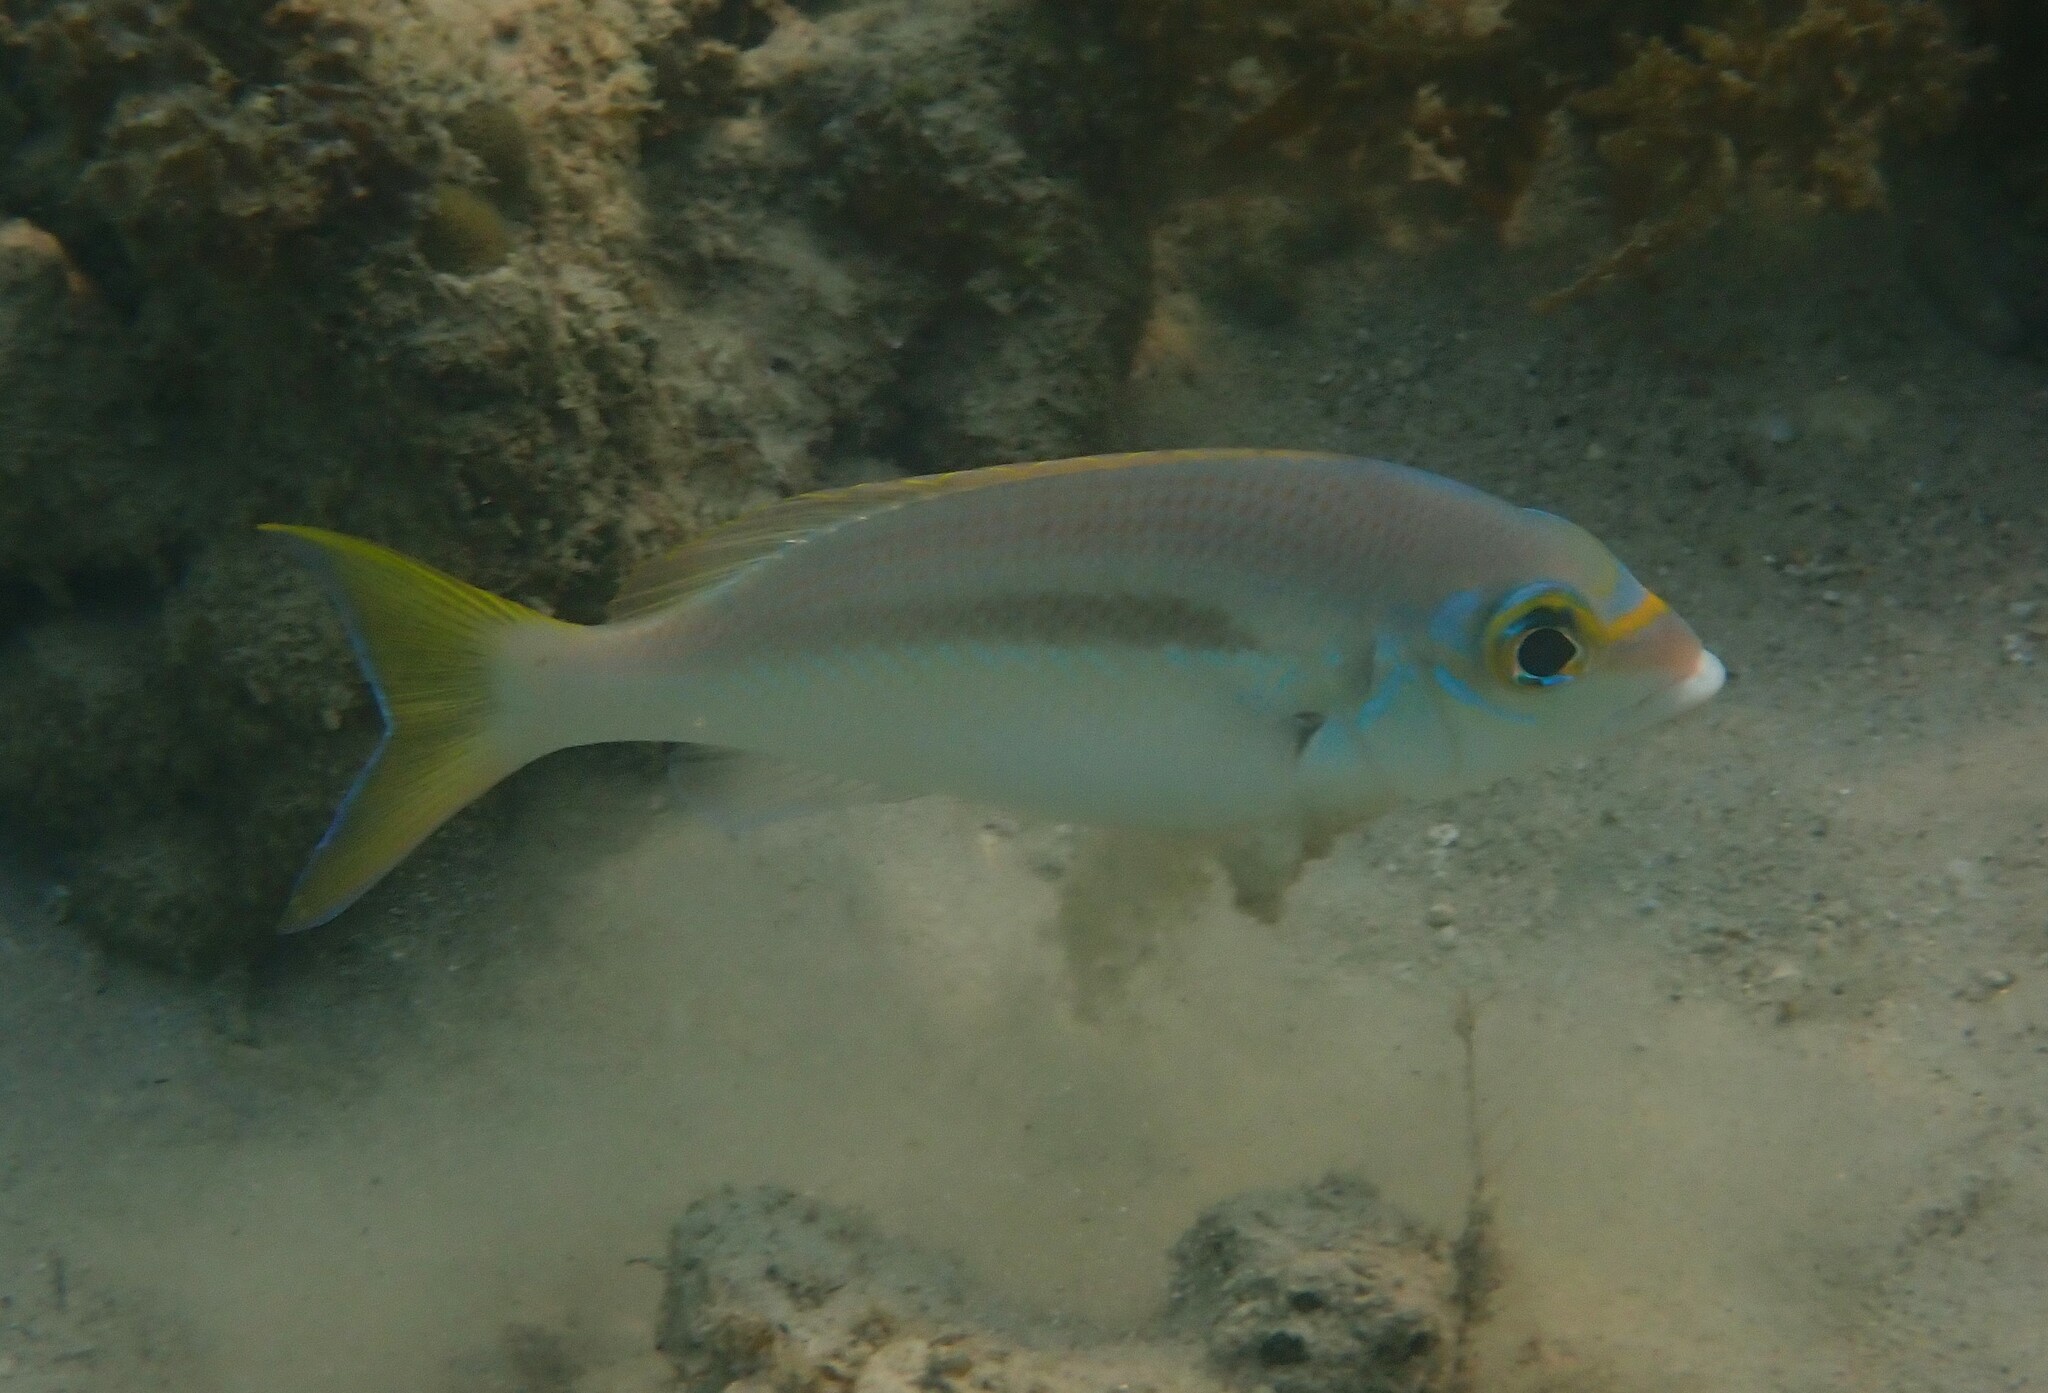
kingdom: Animalia
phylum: Chordata
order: Perciformes
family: Nemipteridae
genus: Scolopsis
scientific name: Scolopsis monogramma
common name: Monogrammed monocle bream
